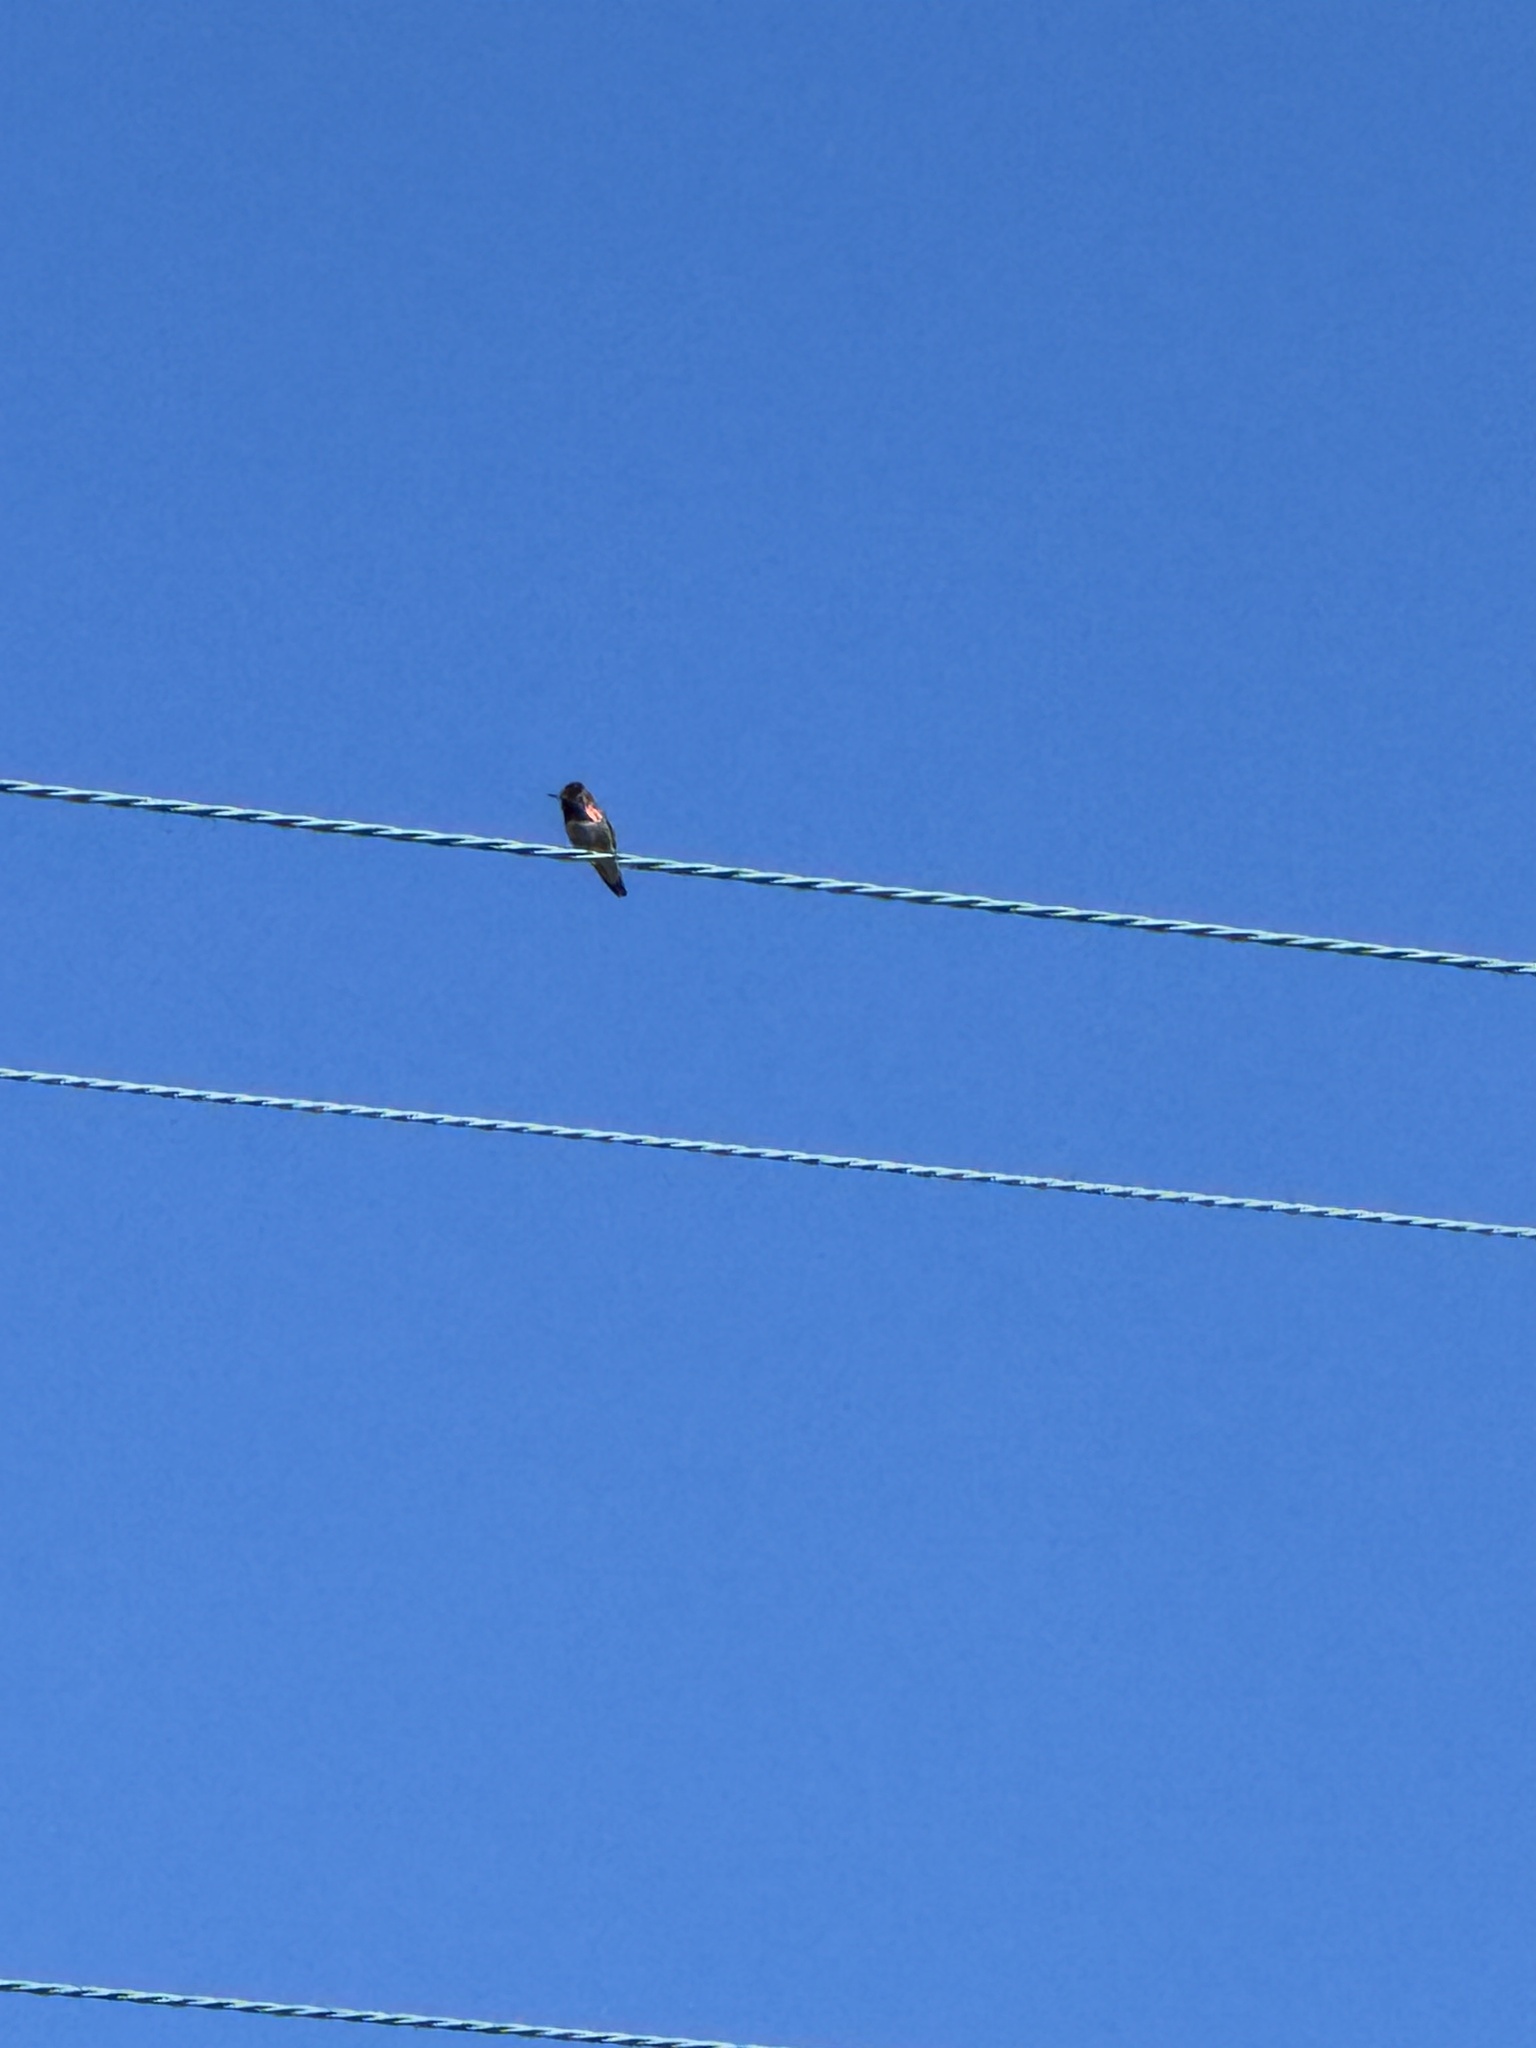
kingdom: Animalia
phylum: Chordata
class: Aves
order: Apodiformes
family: Trochilidae
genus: Calypte
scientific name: Calypte anna
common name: Anna's hummingbird
